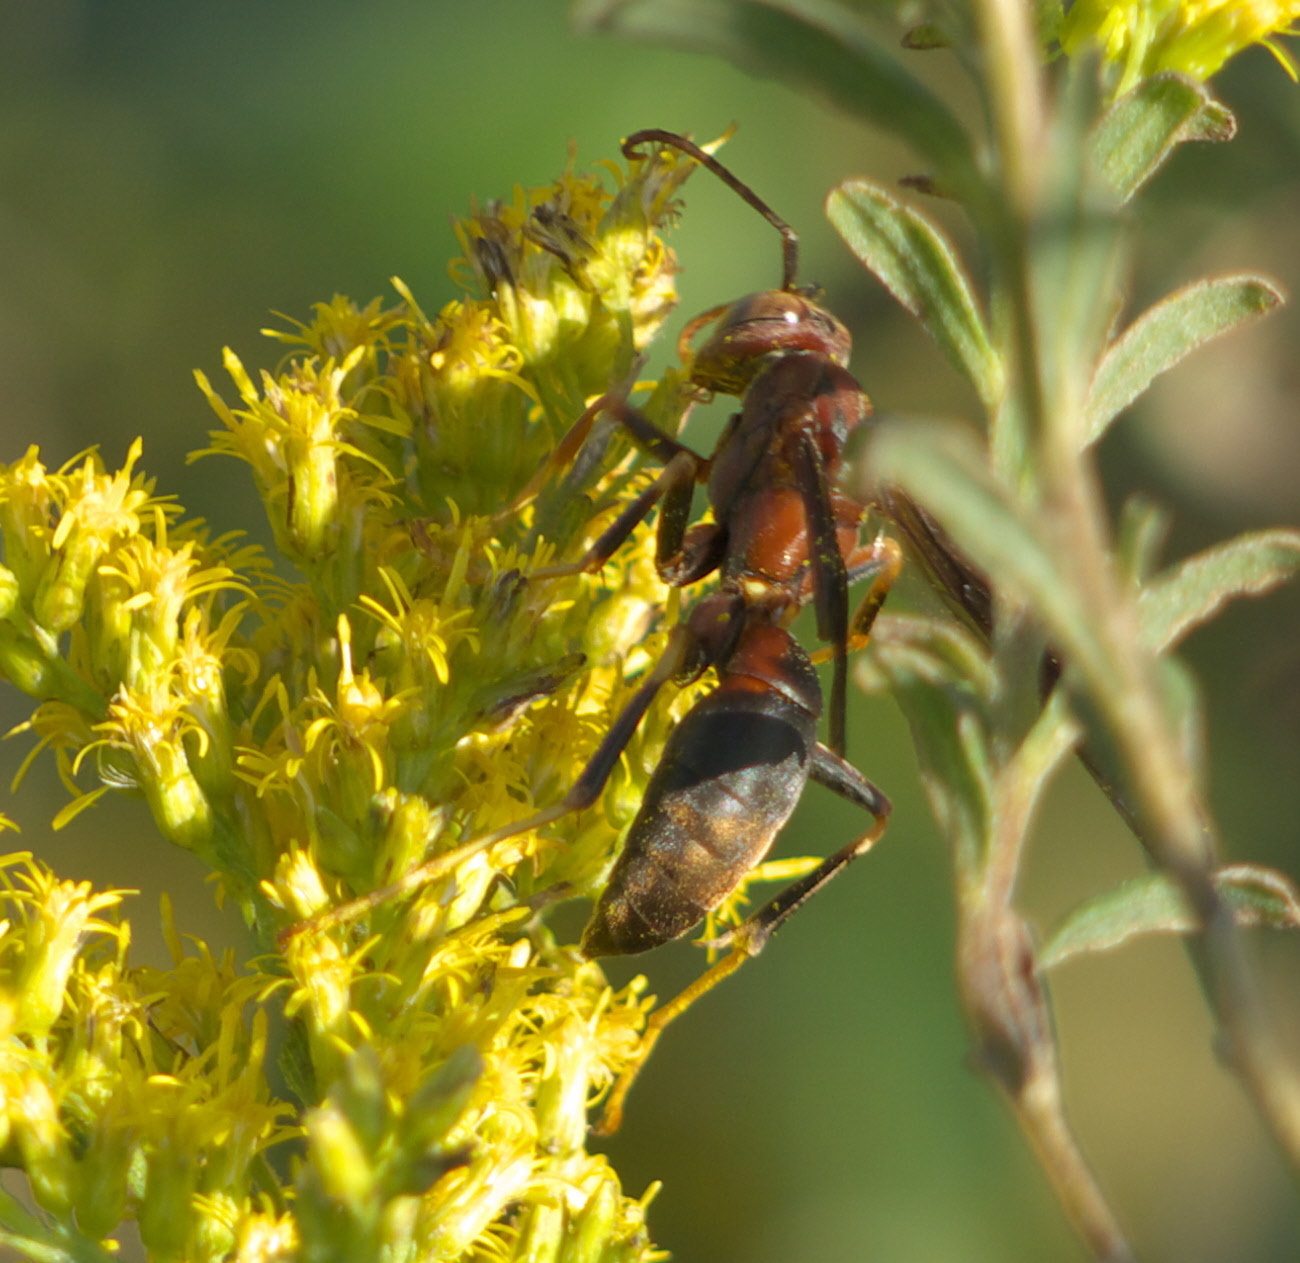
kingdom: Animalia
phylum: Arthropoda
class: Insecta
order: Hymenoptera
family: Eumenidae
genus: Polistes
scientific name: Polistes metricus
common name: Metric paper wasp
